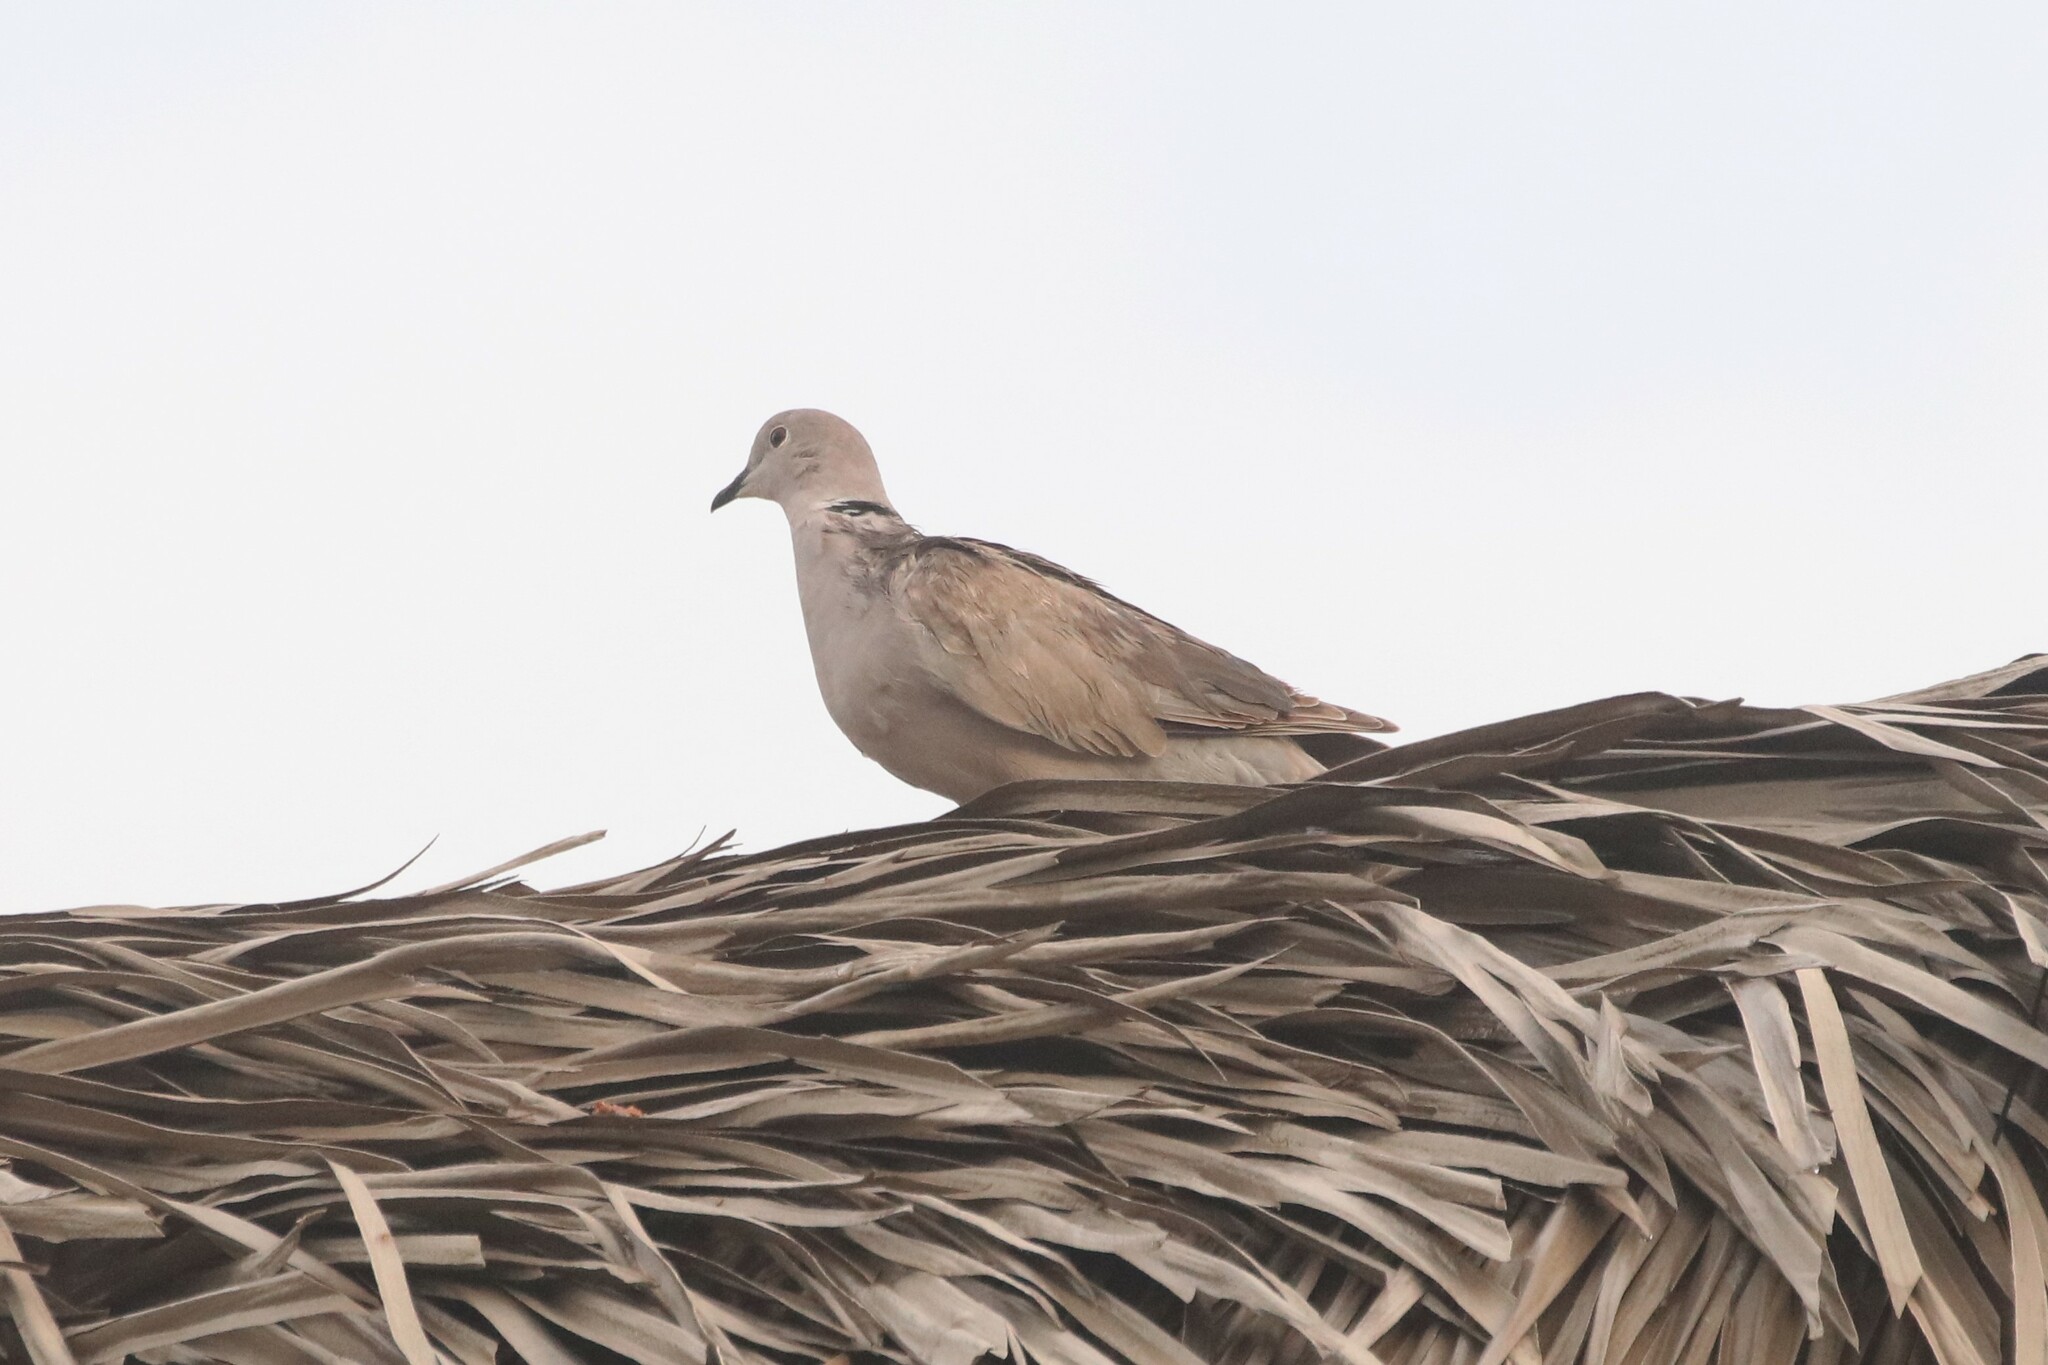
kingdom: Animalia
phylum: Chordata
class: Aves
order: Columbiformes
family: Columbidae
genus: Streptopelia
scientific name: Streptopelia decaocto
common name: Eurasian collared dove
